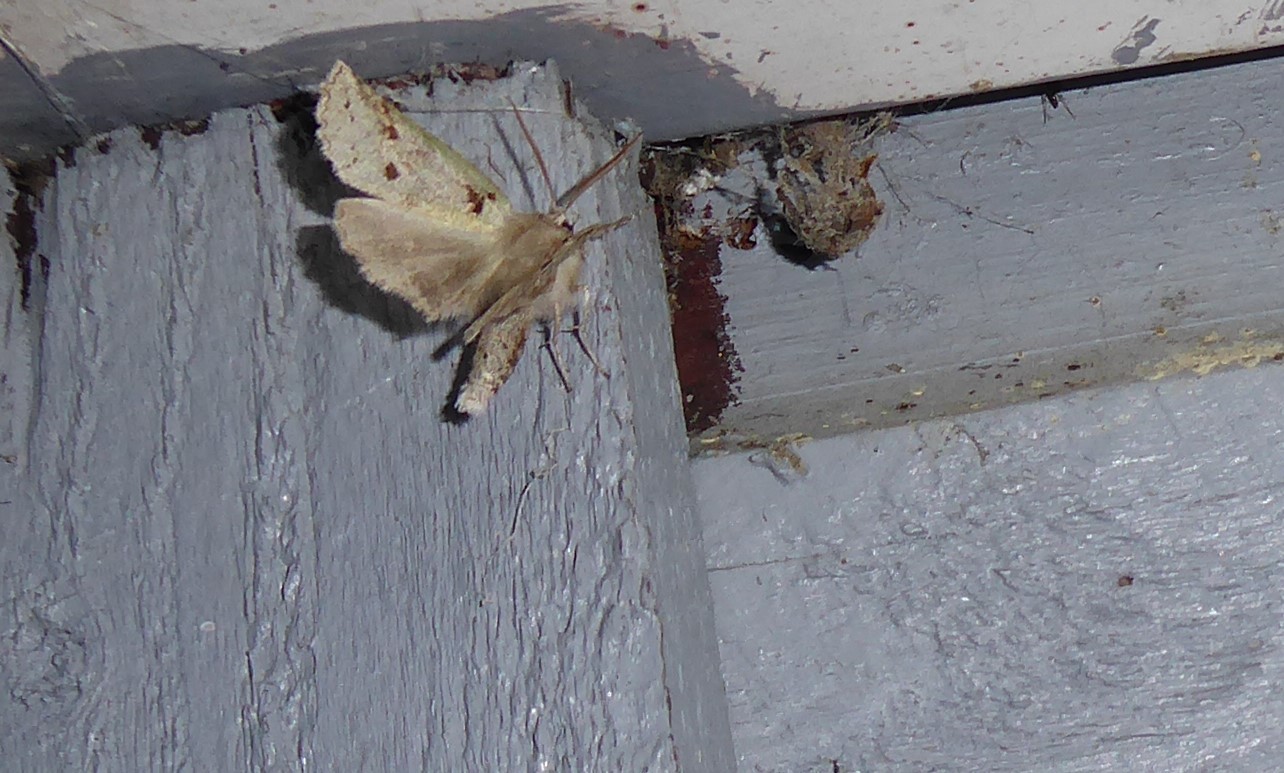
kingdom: Animalia
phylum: Arthropoda
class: Insecta
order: Lepidoptera
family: Geometridae
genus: Declana
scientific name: Declana floccosa
